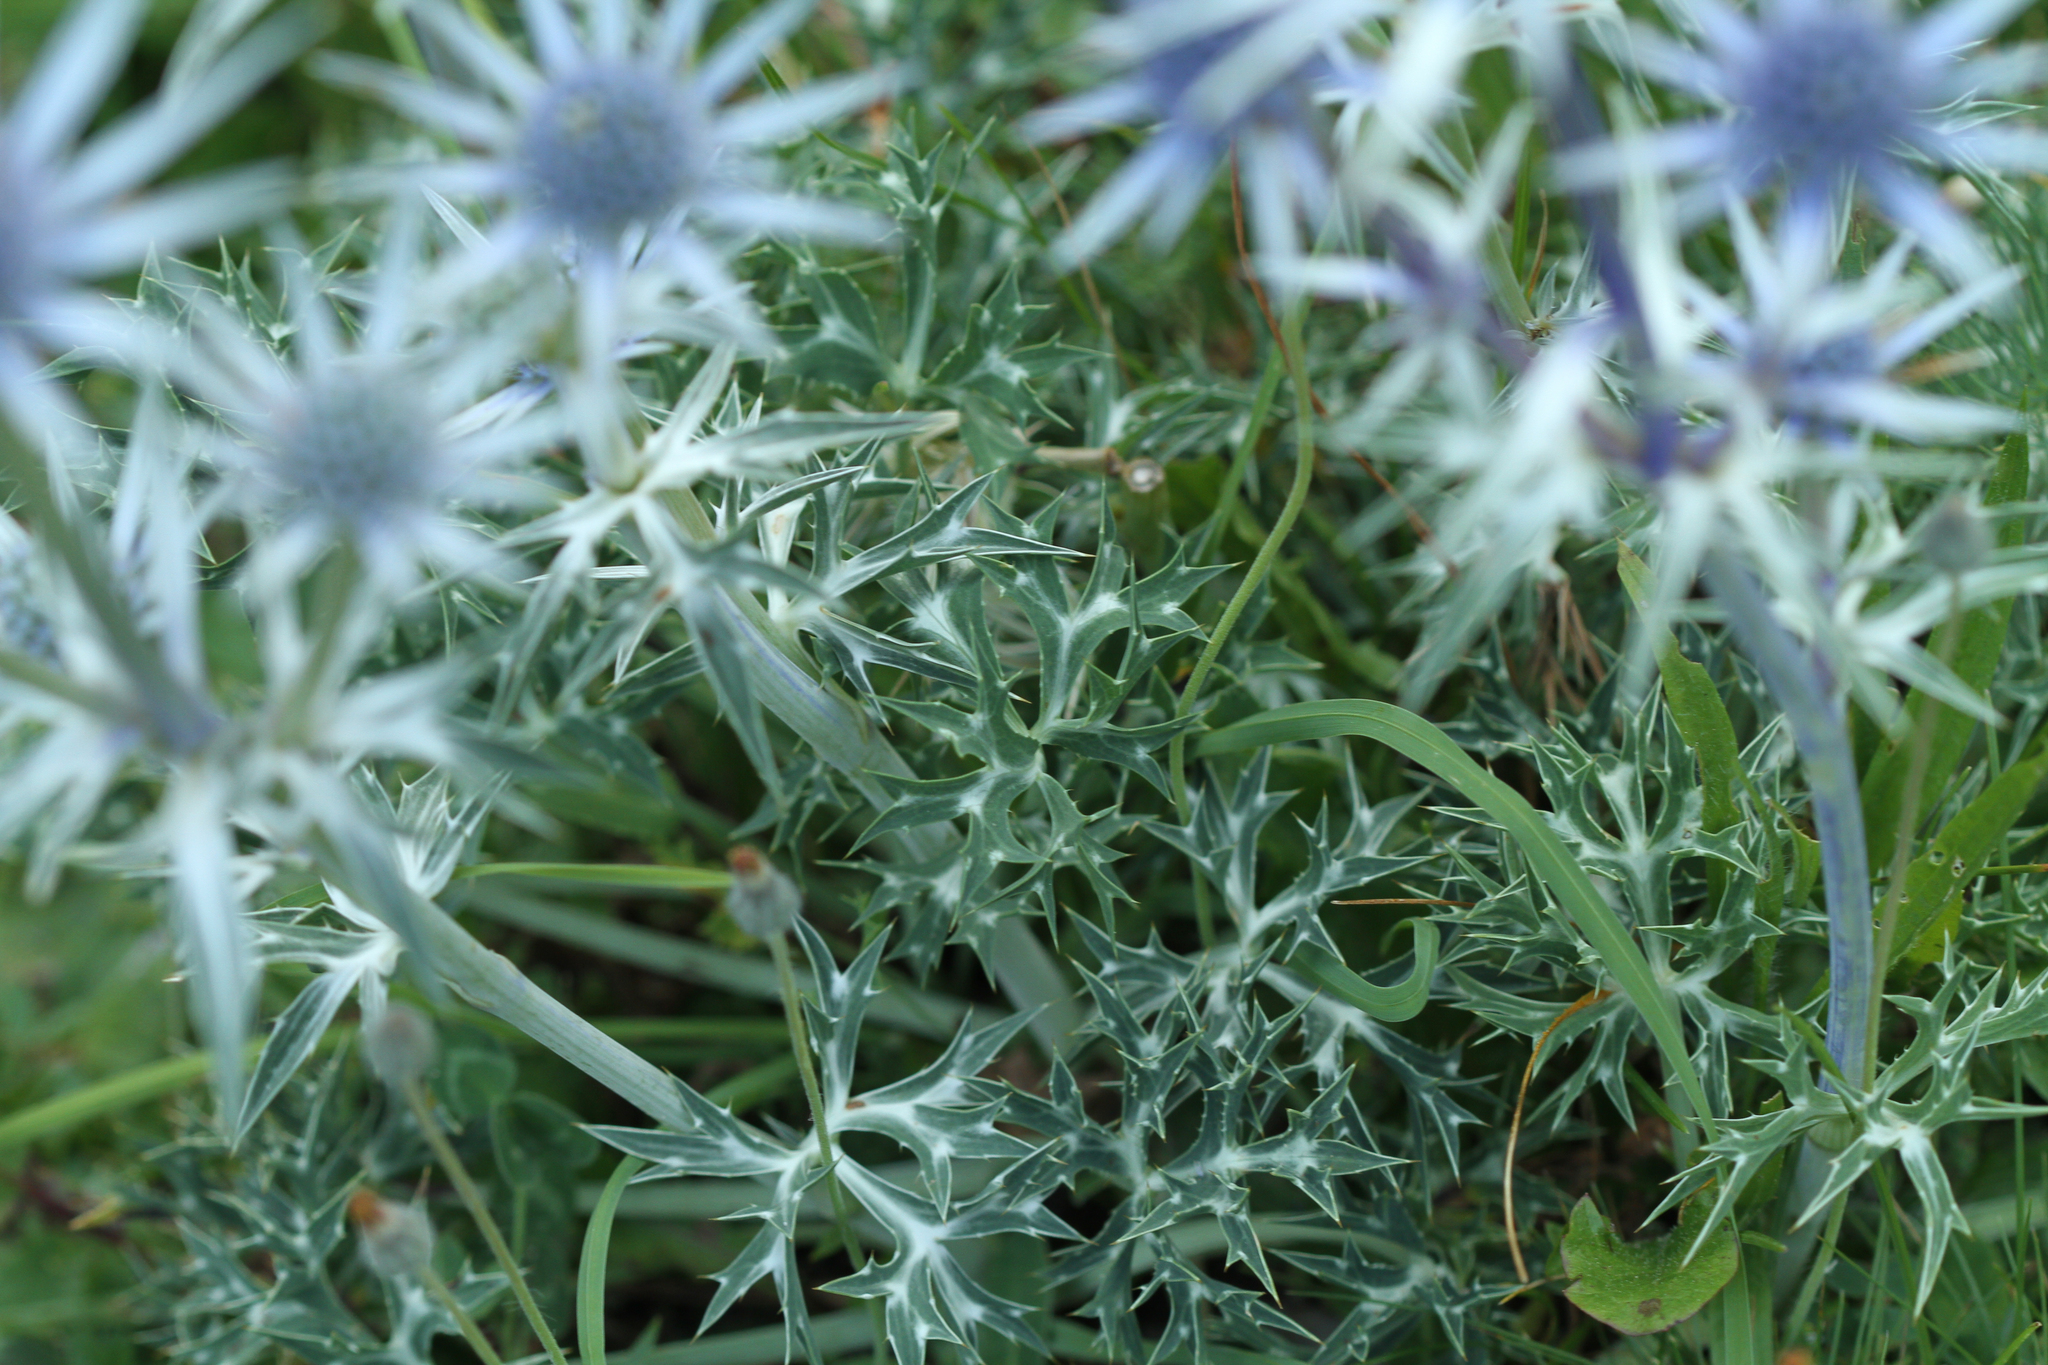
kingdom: Plantae
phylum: Tracheophyta
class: Magnoliopsida
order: Apiales
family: Apiaceae
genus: Eryngium
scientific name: Eryngium bourgatii
